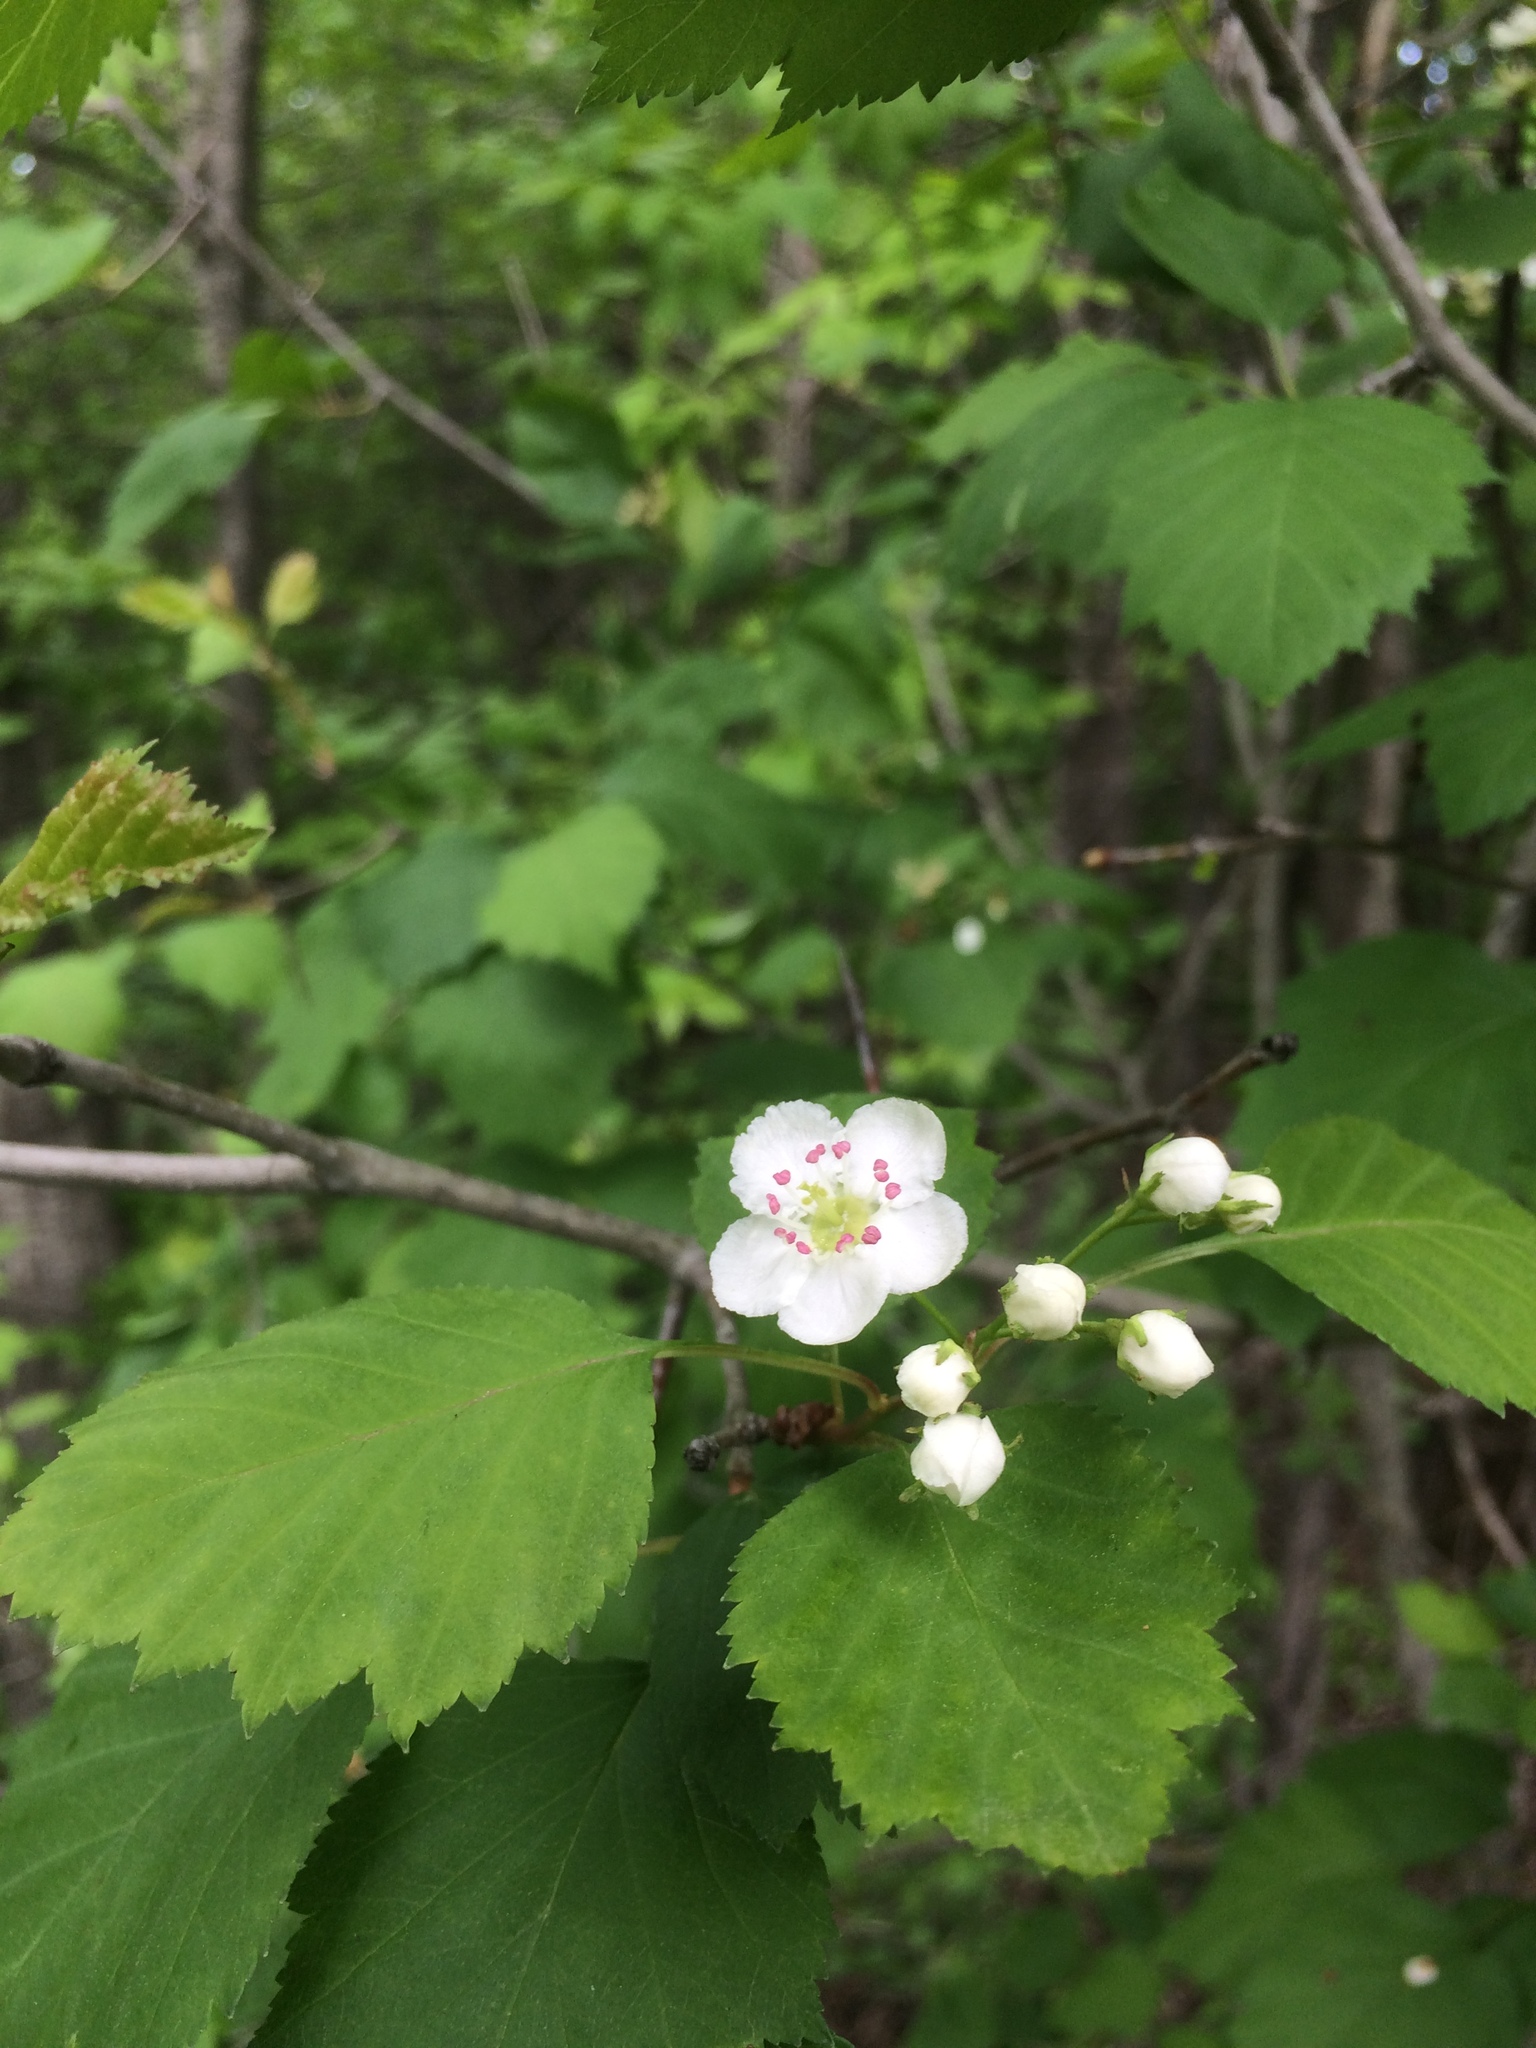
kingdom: Plantae
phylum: Tracheophyta
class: Magnoliopsida
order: Rosales
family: Rosaceae
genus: Crataegus
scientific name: Crataegus macrosperma
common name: Variable hawthorn
